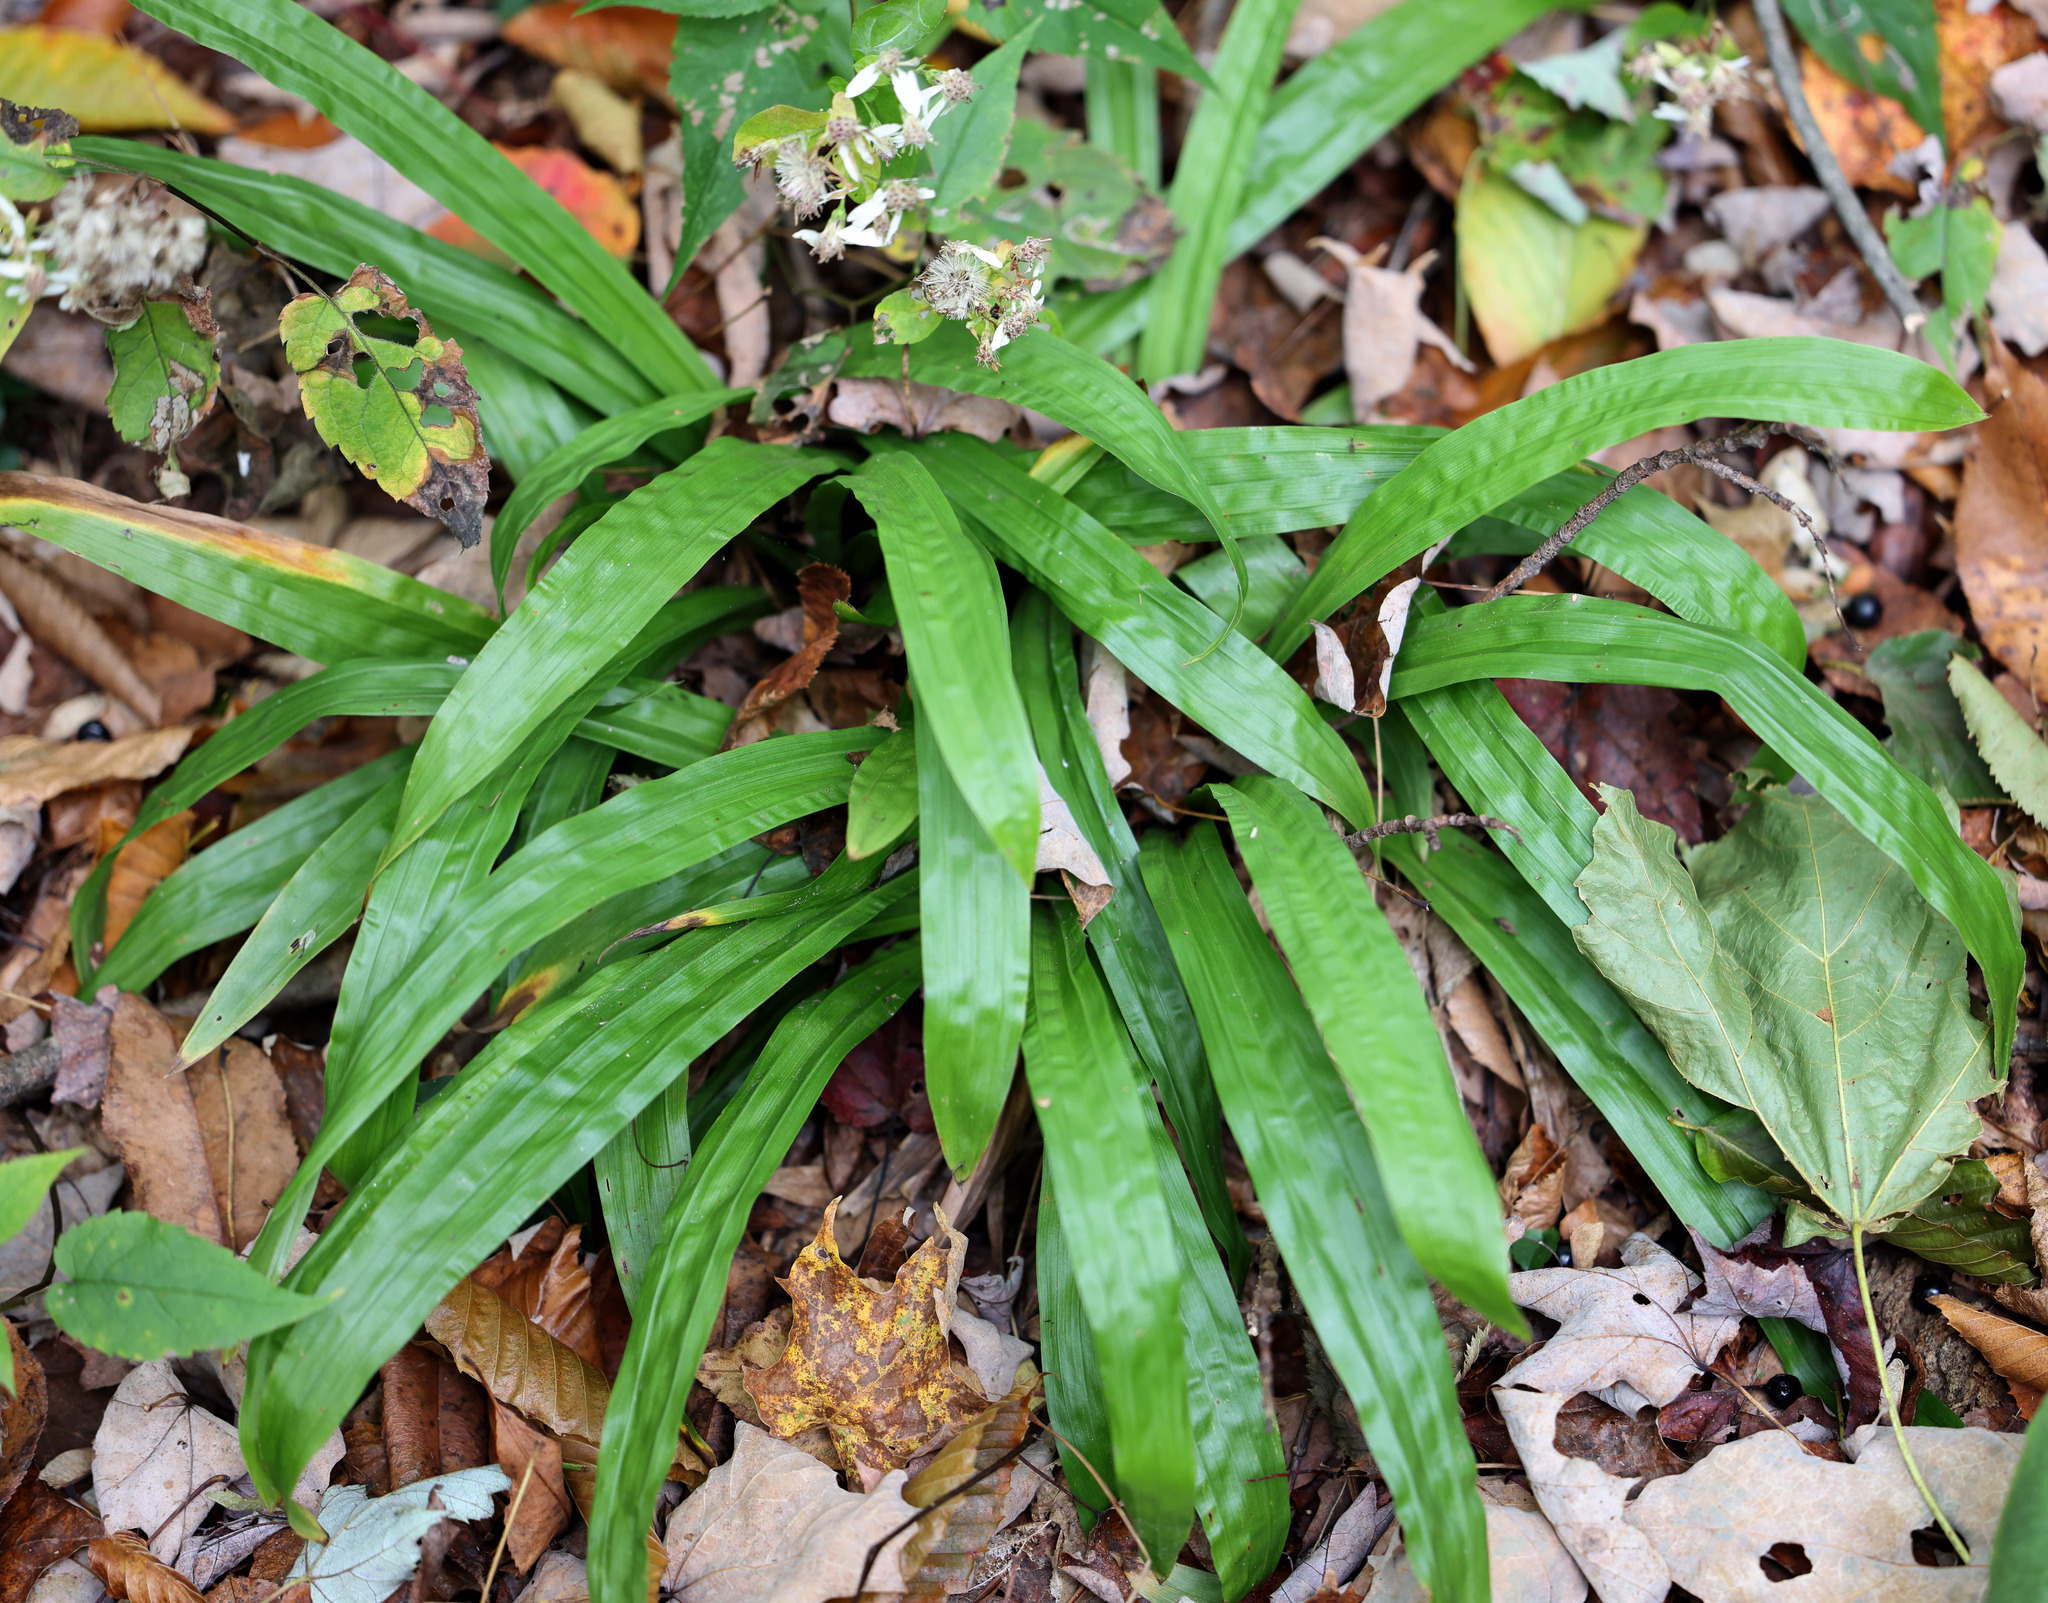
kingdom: Plantae
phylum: Tracheophyta
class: Liliopsida
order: Poales
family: Cyperaceae
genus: Carex
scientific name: Carex plantaginea
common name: Plantain-leaved sedge
